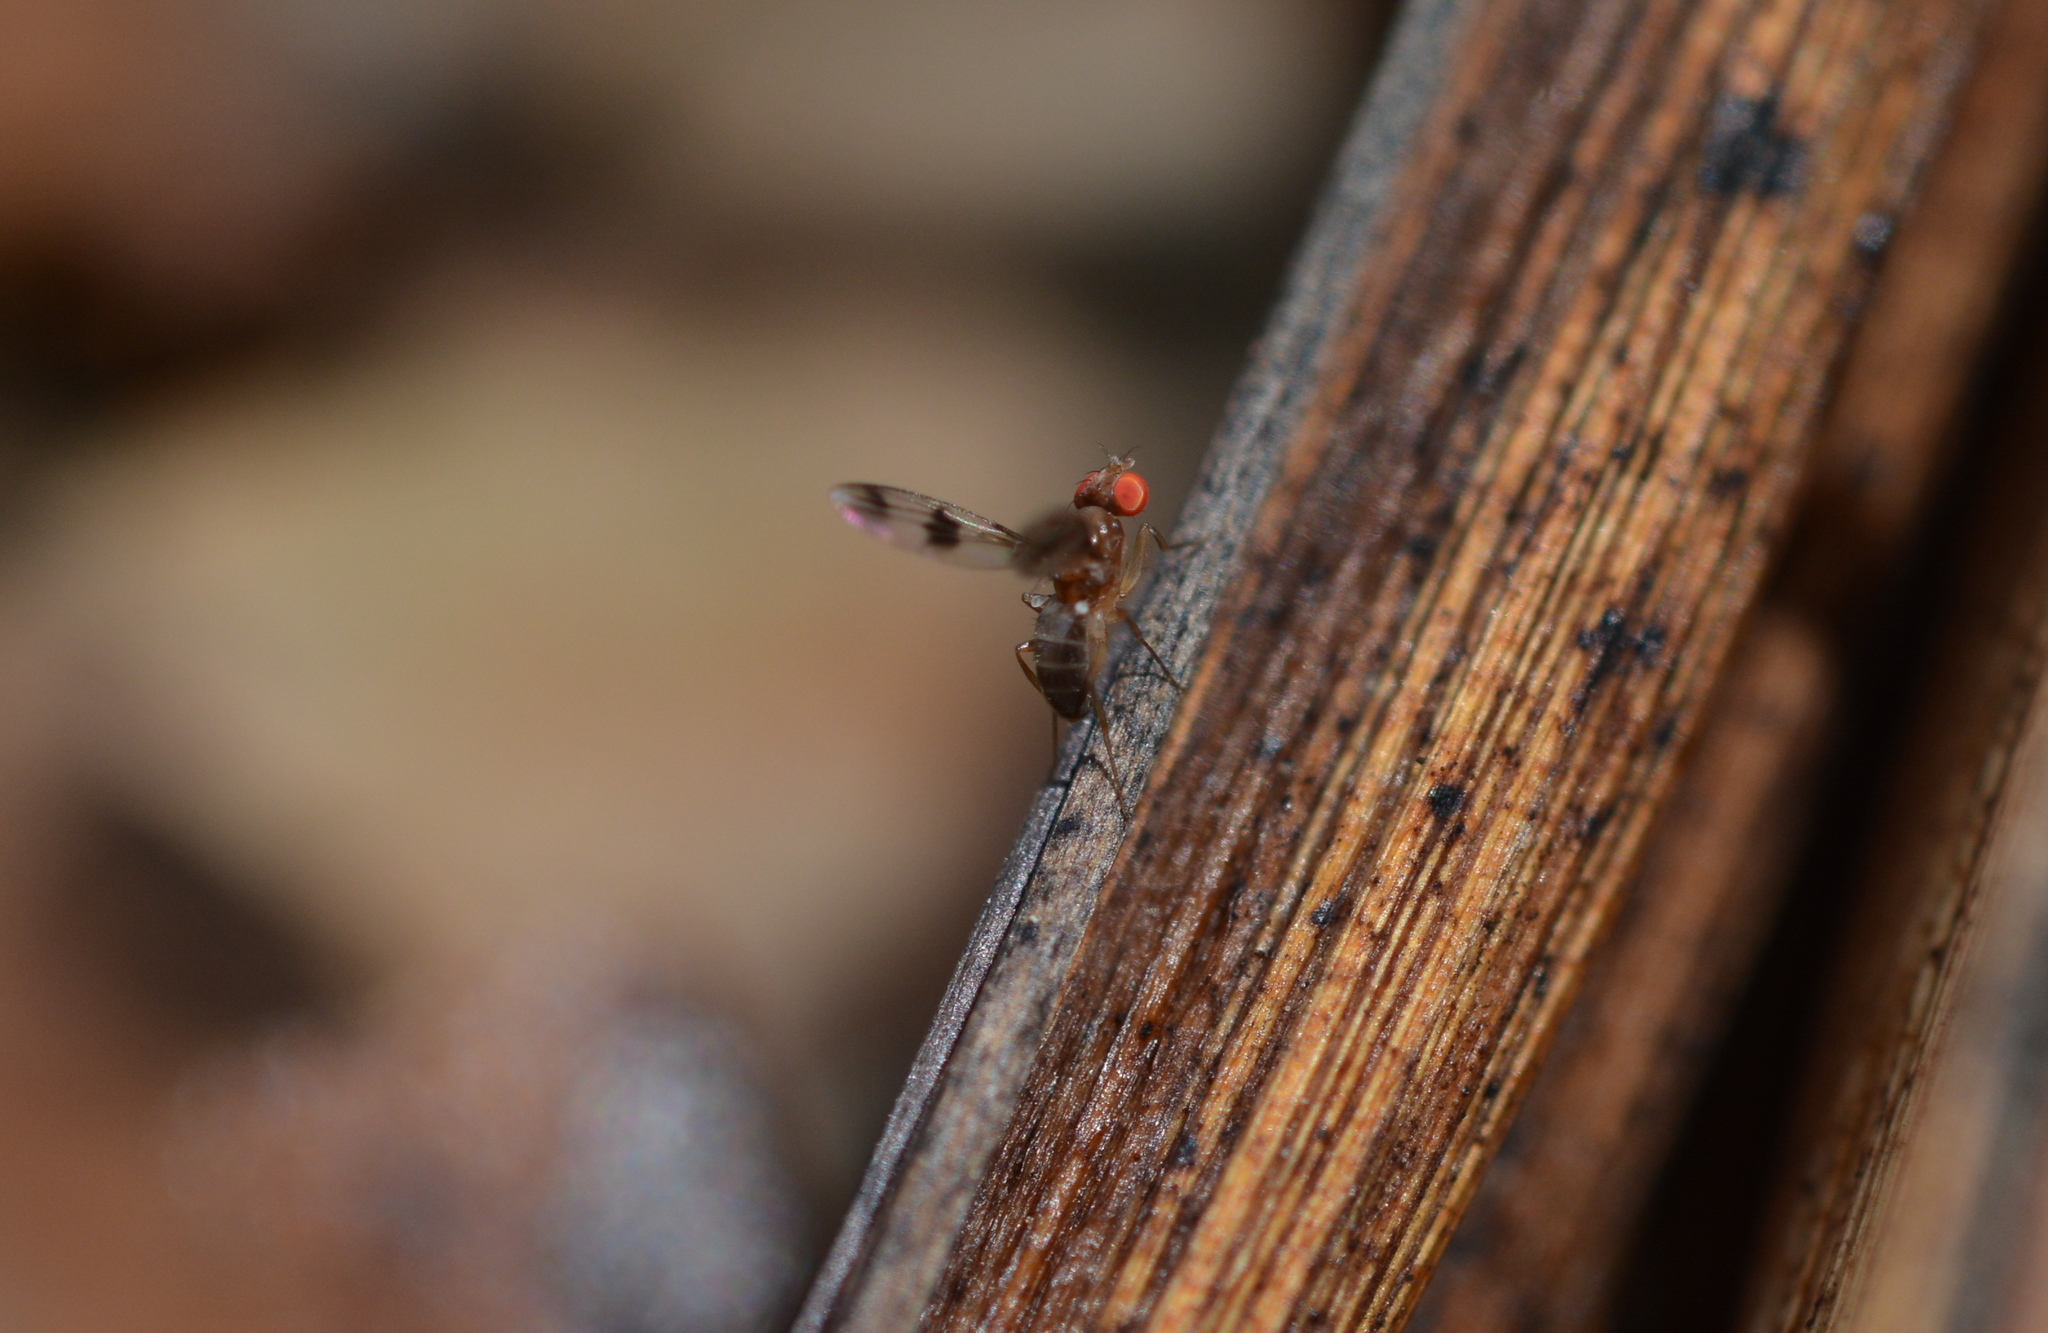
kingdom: Animalia
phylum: Arthropoda
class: Insecta
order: Diptera
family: Drosophilidae
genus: Chymomyza
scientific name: Chymomyza amoena
